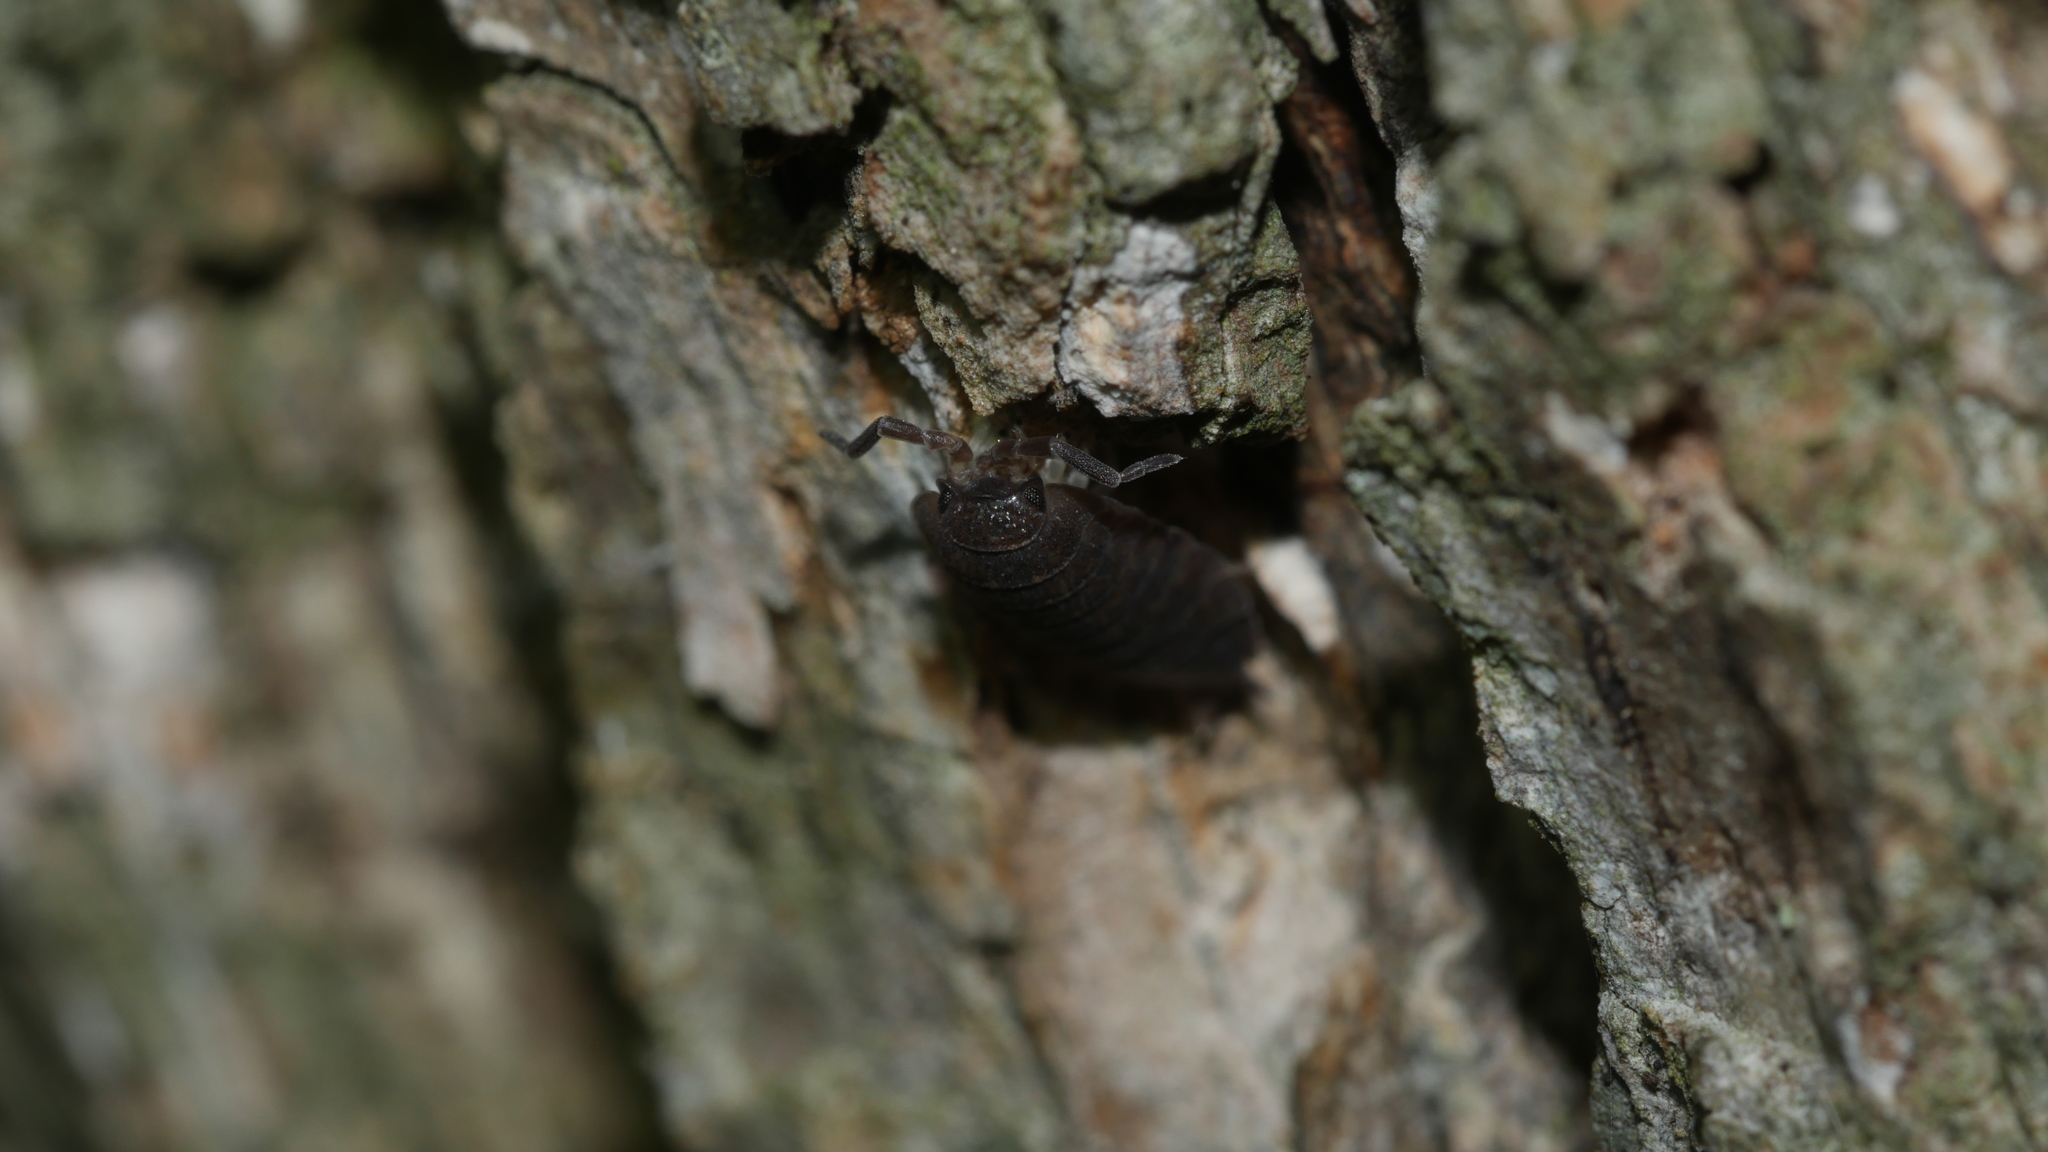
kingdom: Animalia
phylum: Arthropoda
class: Malacostraca
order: Isopoda
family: Porcellionidae
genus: Porcellio
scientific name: Porcellio scaber
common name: Common rough woodlouse
